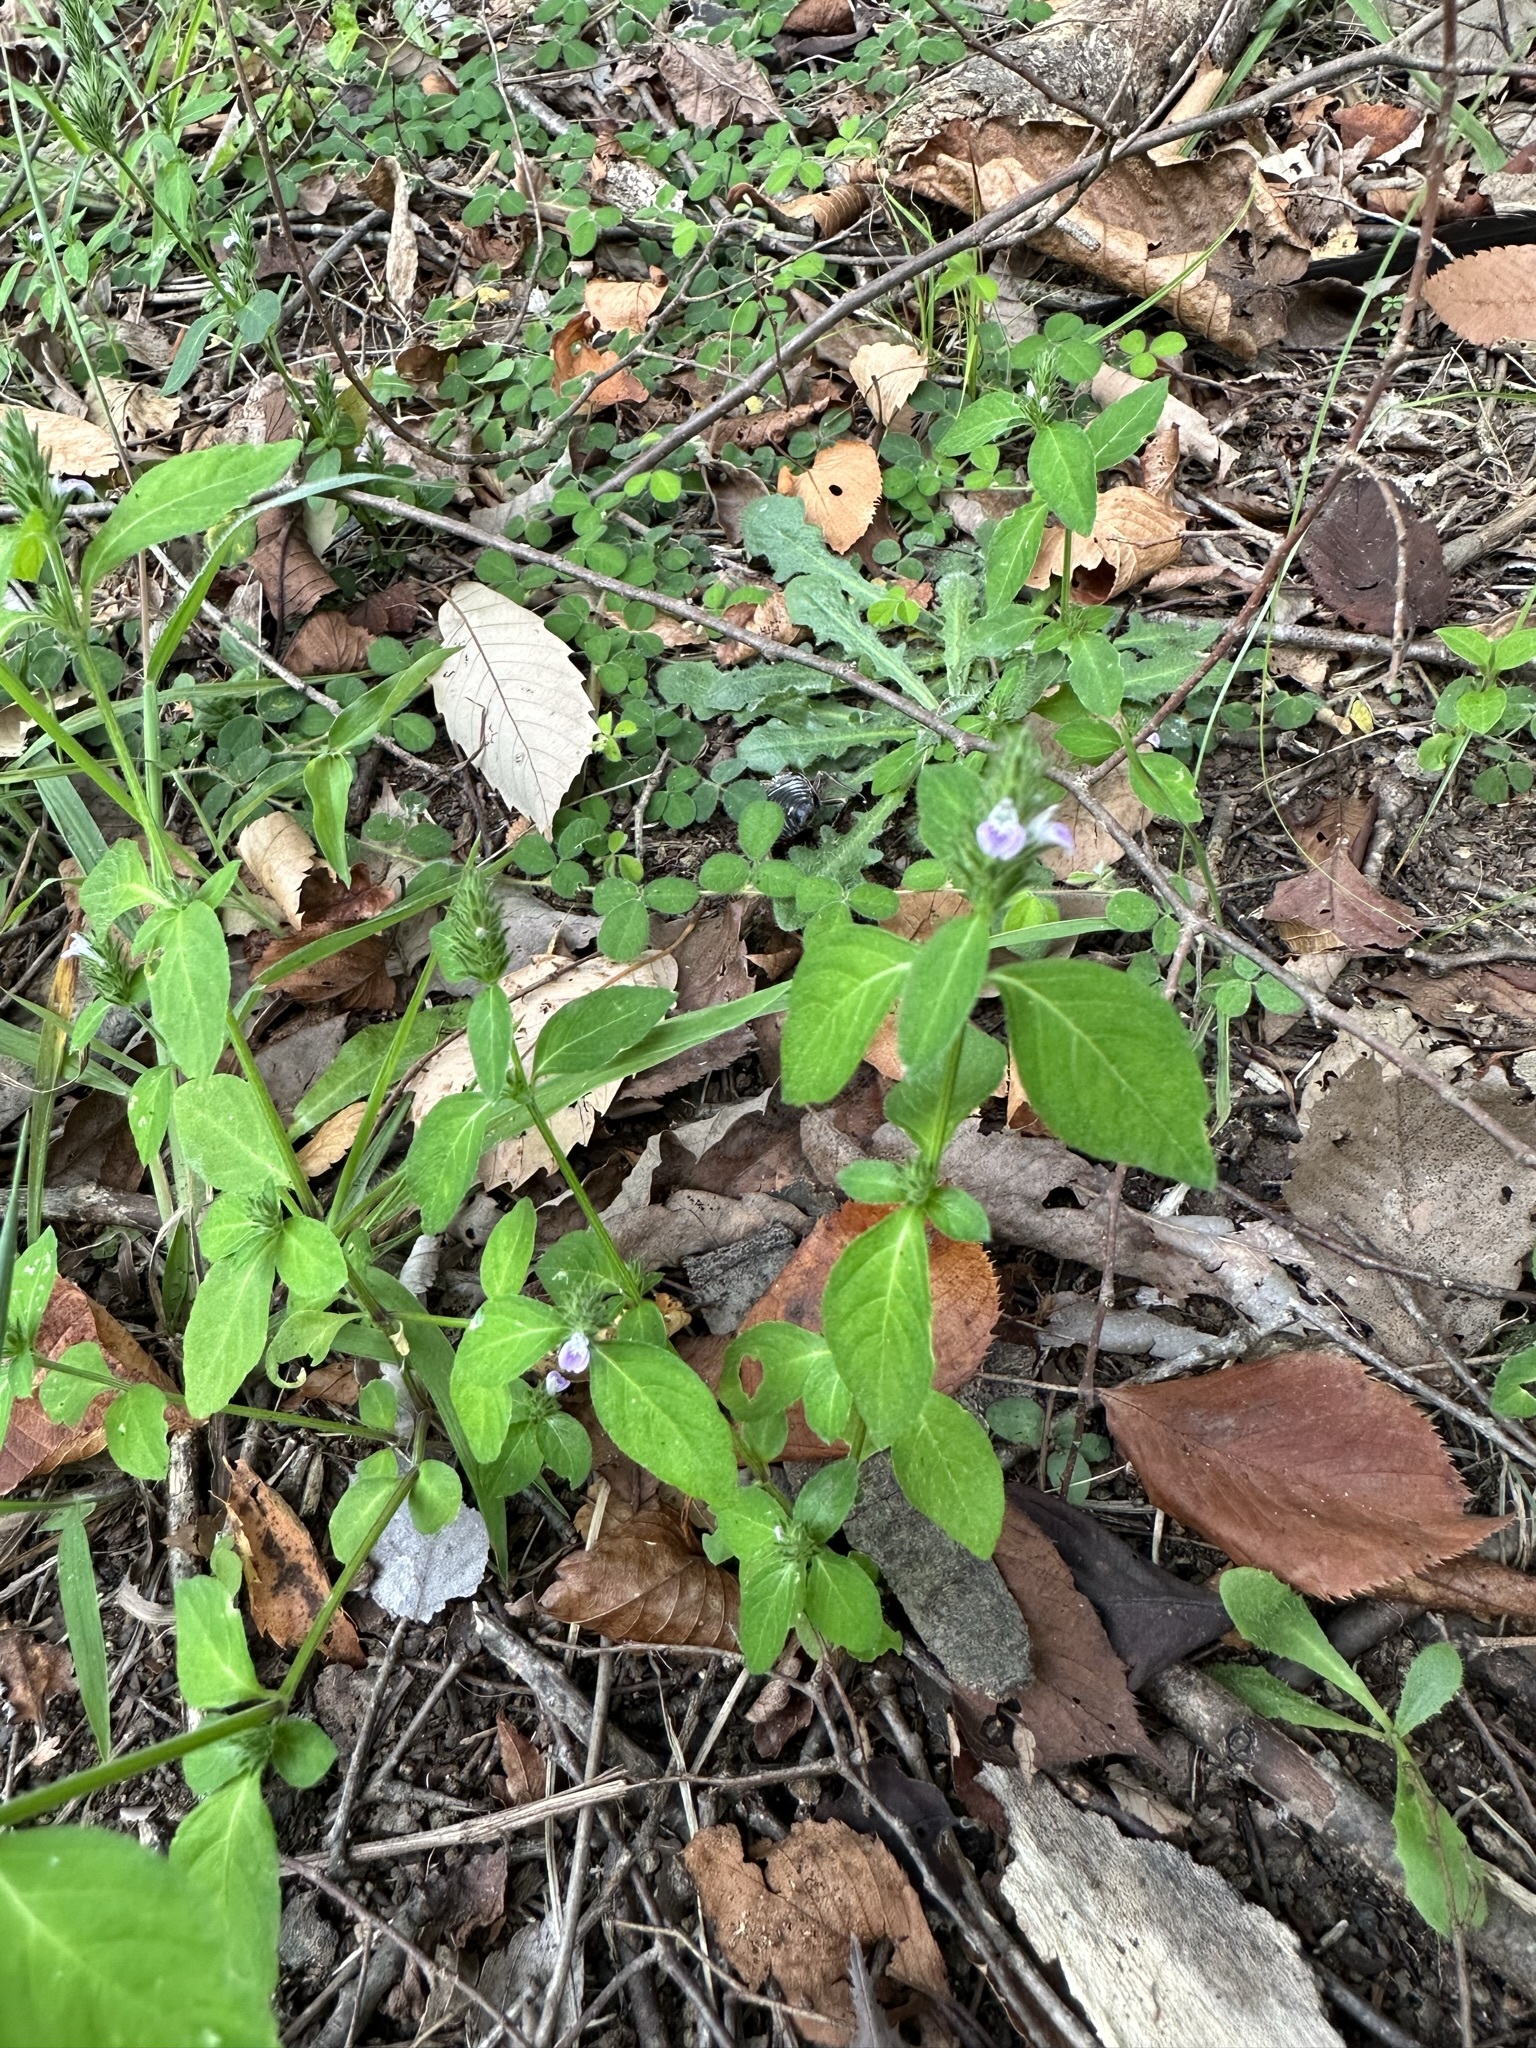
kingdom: Plantae
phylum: Tracheophyta
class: Magnoliopsida
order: Lamiales
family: Acanthaceae
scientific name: Acanthaceae
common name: Acanthaceae
